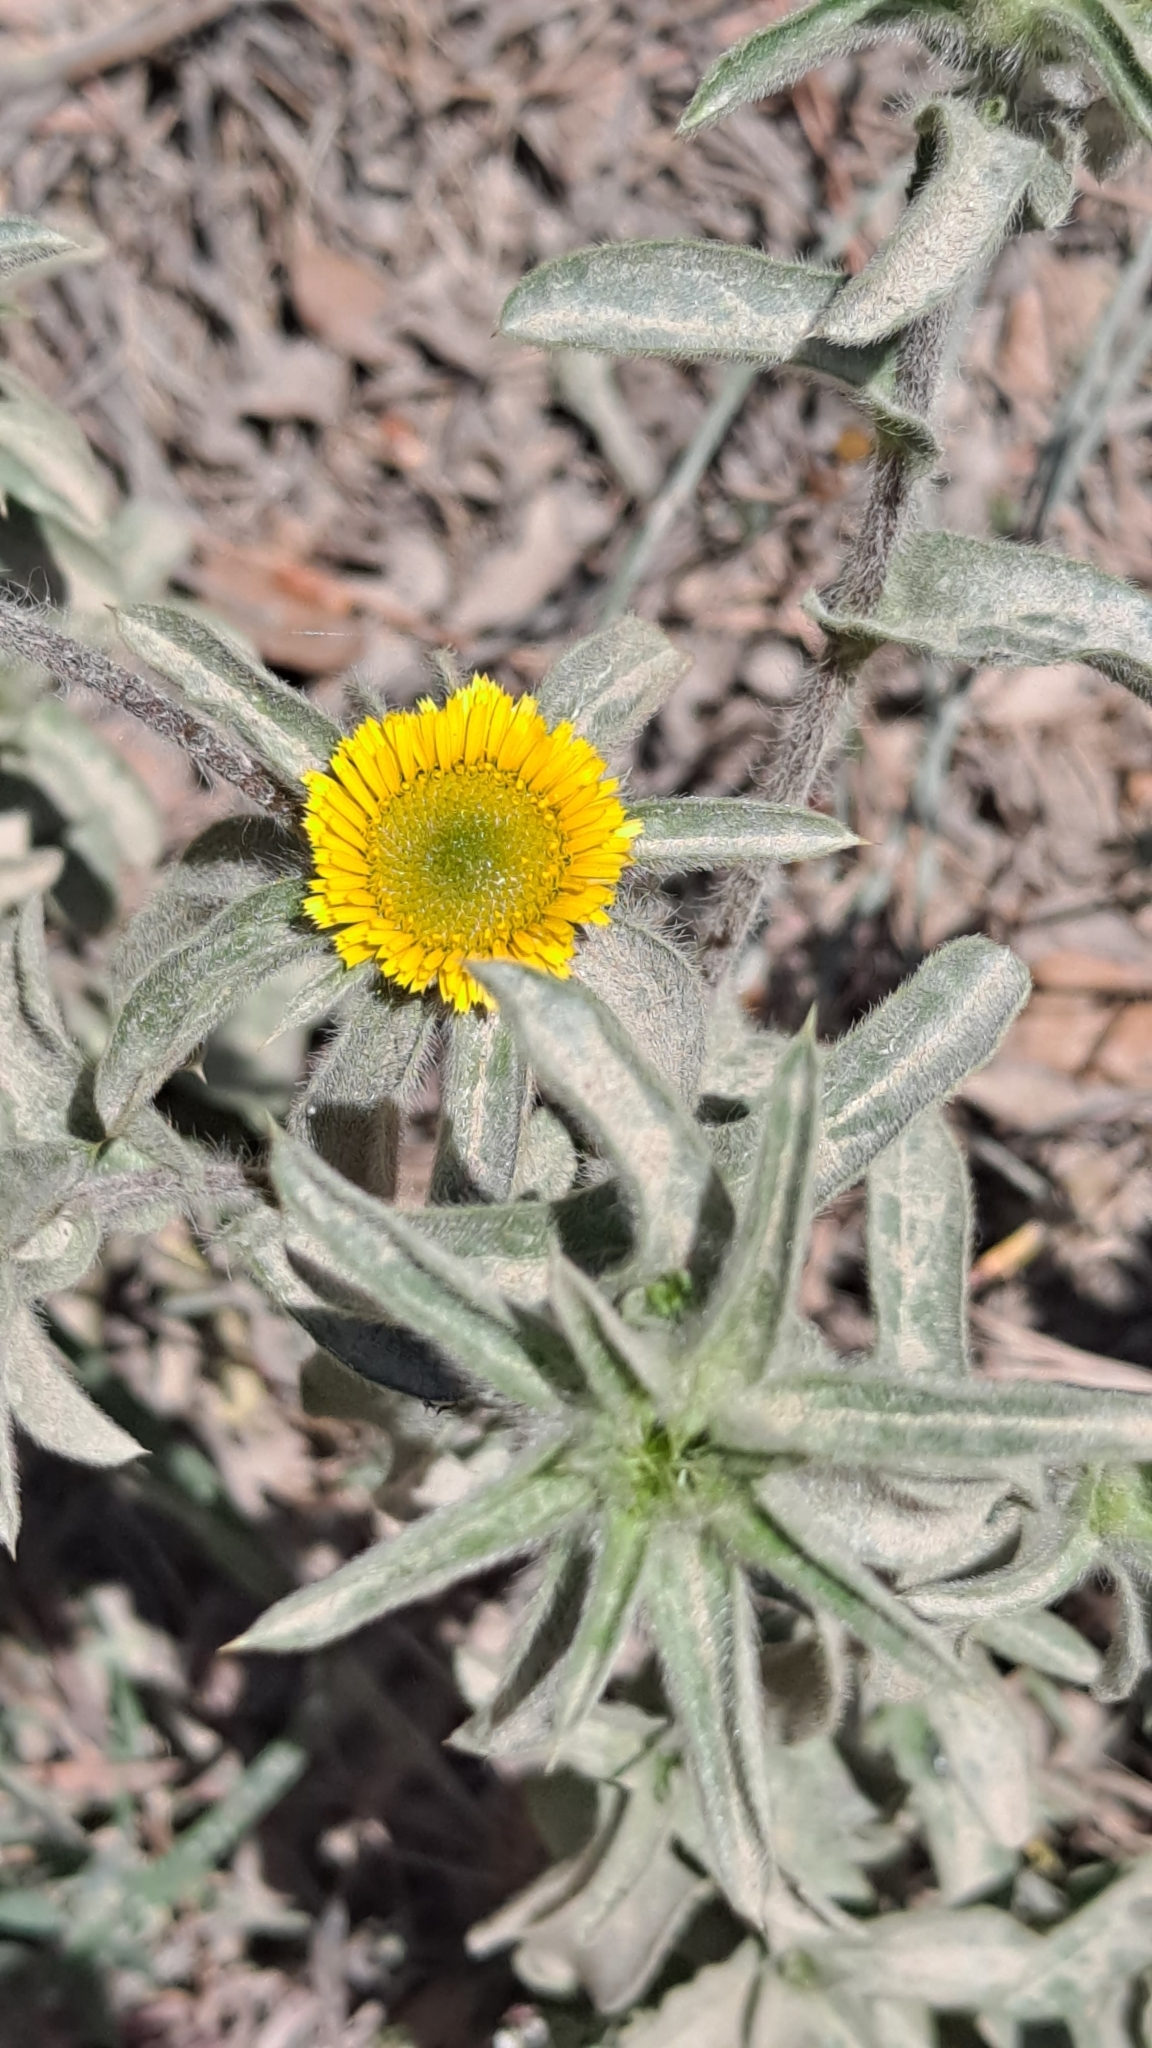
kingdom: Plantae
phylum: Tracheophyta
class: Magnoliopsida
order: Asterales
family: Asteraceae
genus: Pallenis
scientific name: Pallenis spinosa
